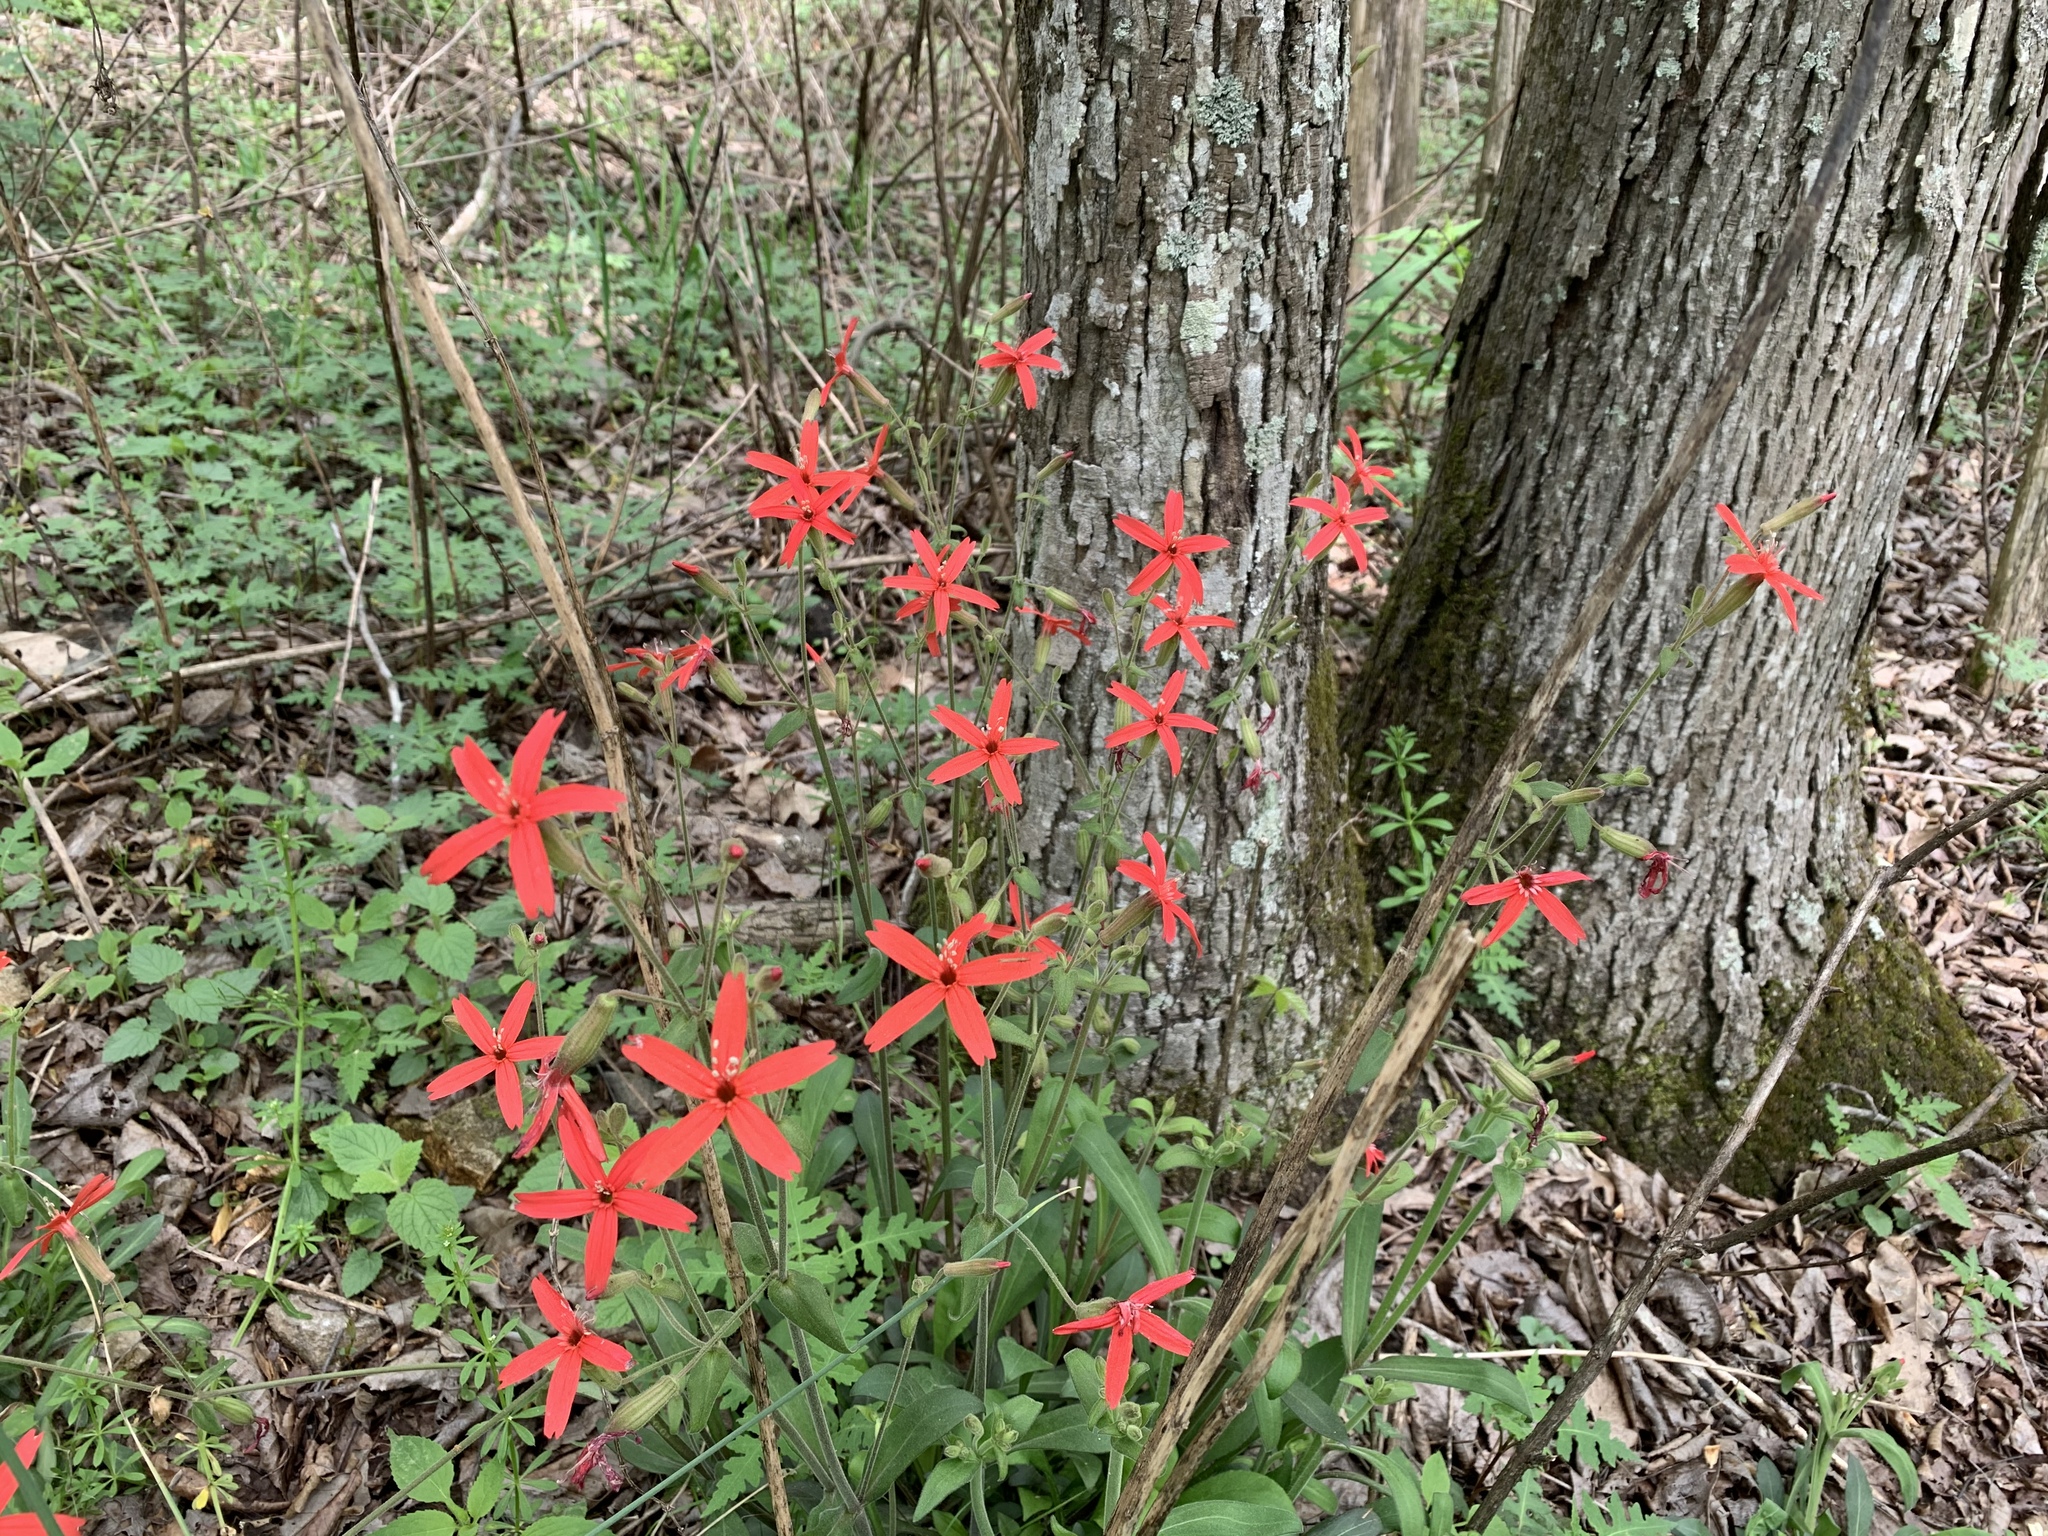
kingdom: Plantae
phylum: Tracheophyta
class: Magnoliopsida
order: Caryophyllales
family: Caryophyllaceae
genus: Silene
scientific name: Silene virginica
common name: Fire-pink
